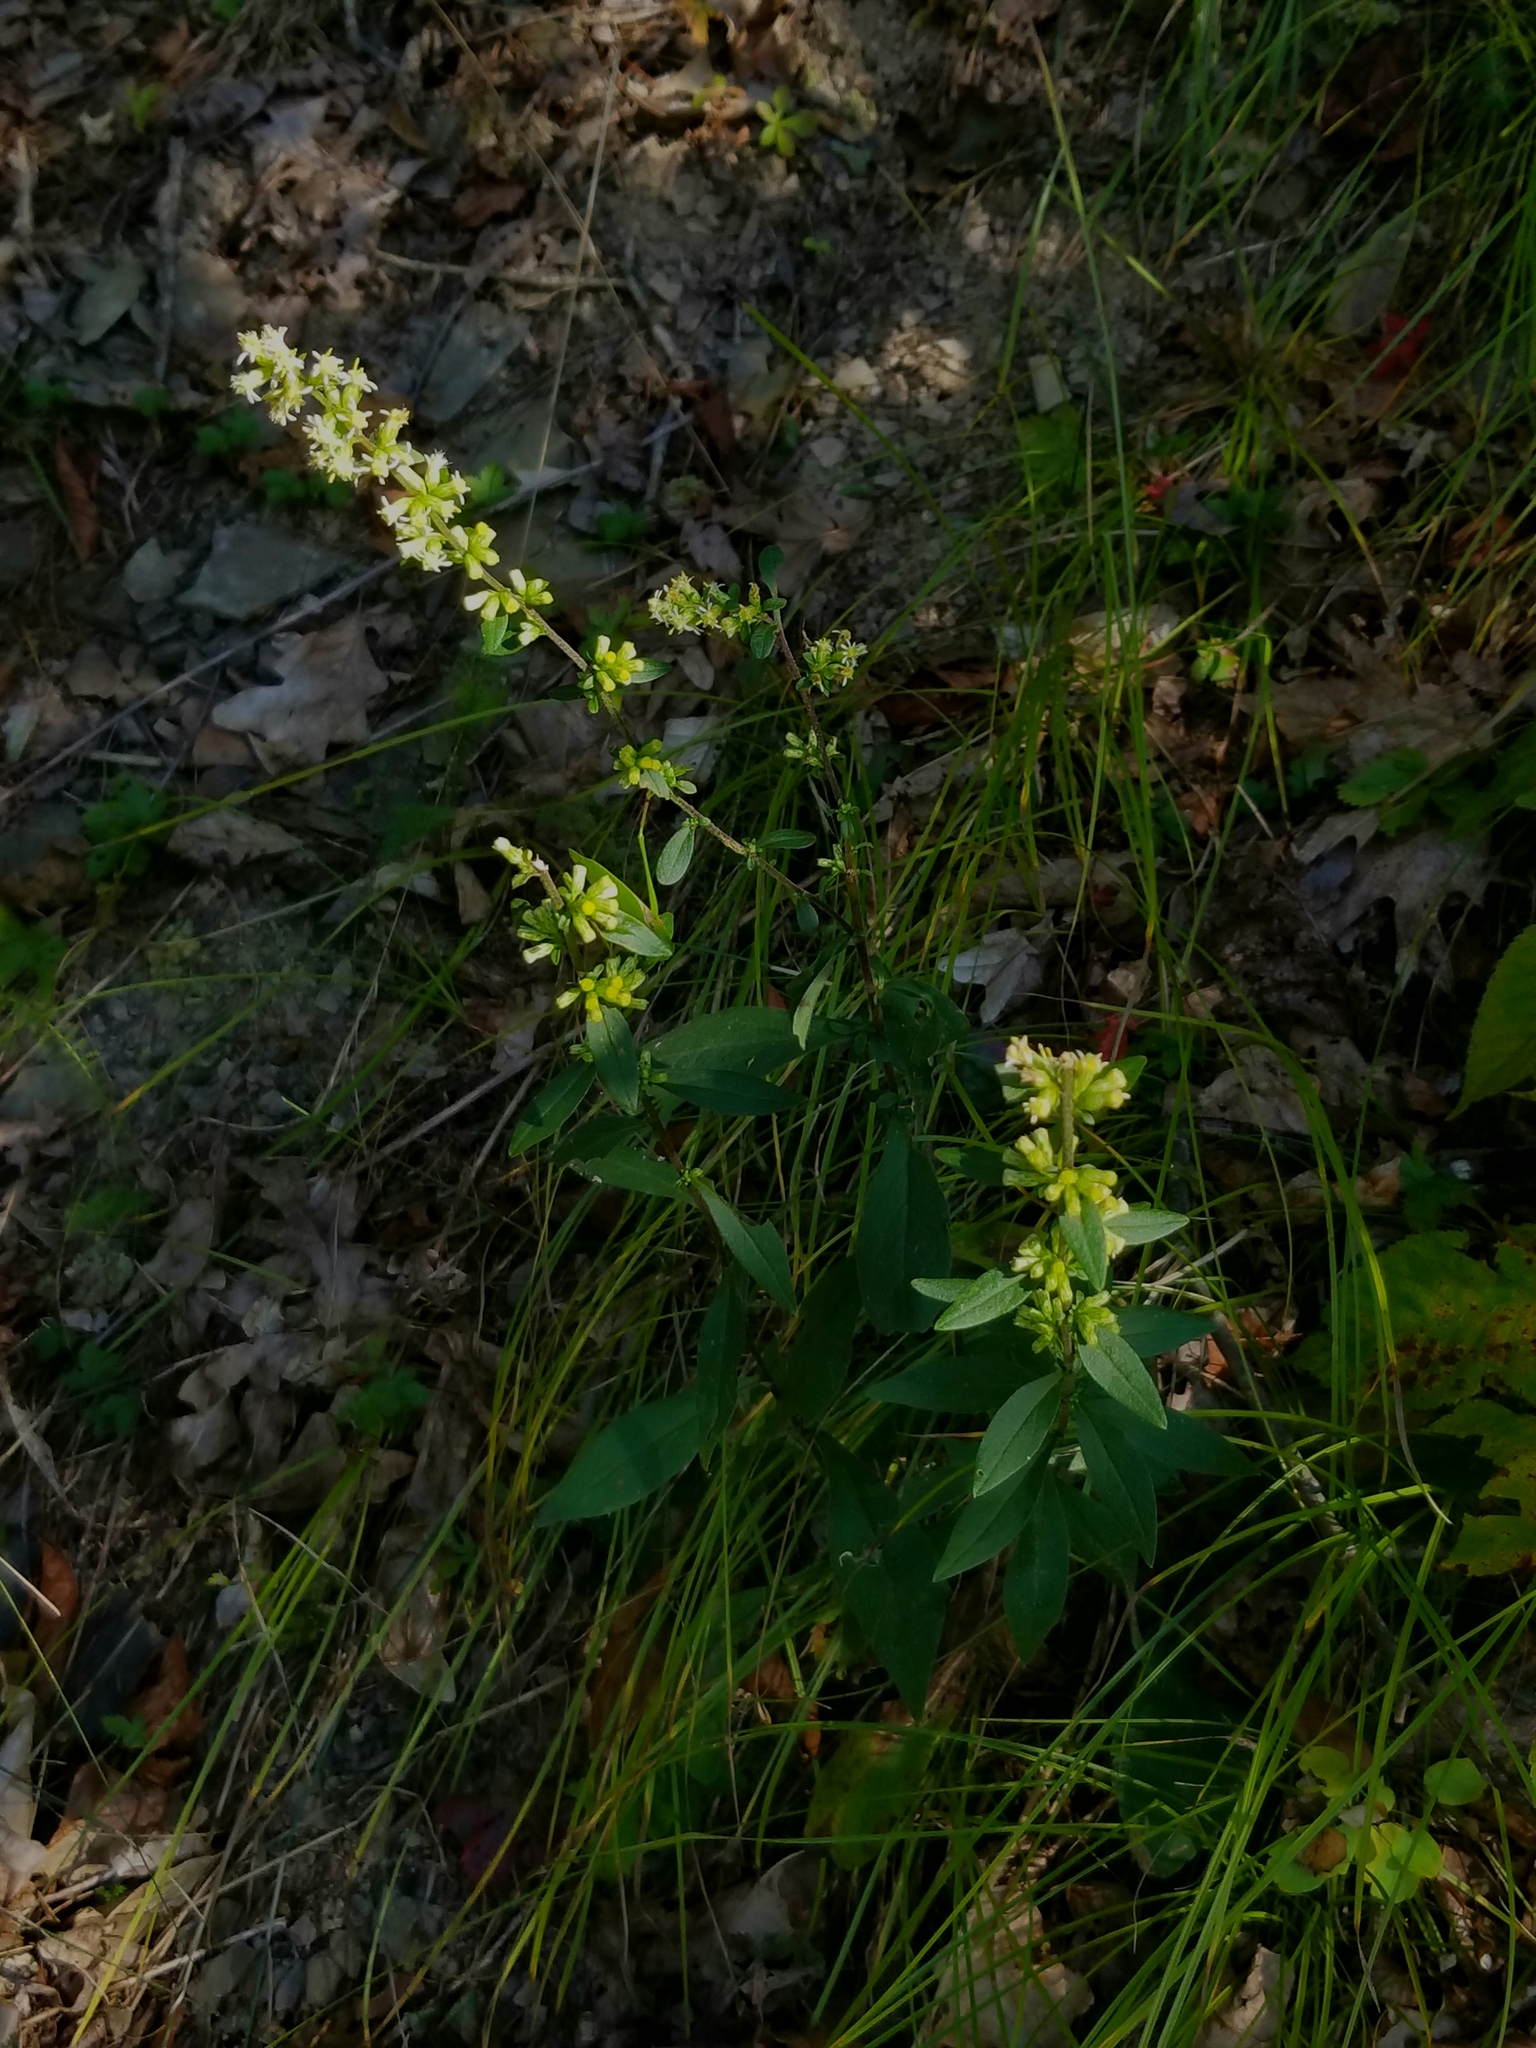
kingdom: Plantae
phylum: Tracheophyta
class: Magnoliopsida
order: Asterales
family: Asteraceae
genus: Solidago
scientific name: Solidago bicolor
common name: Silverrod
